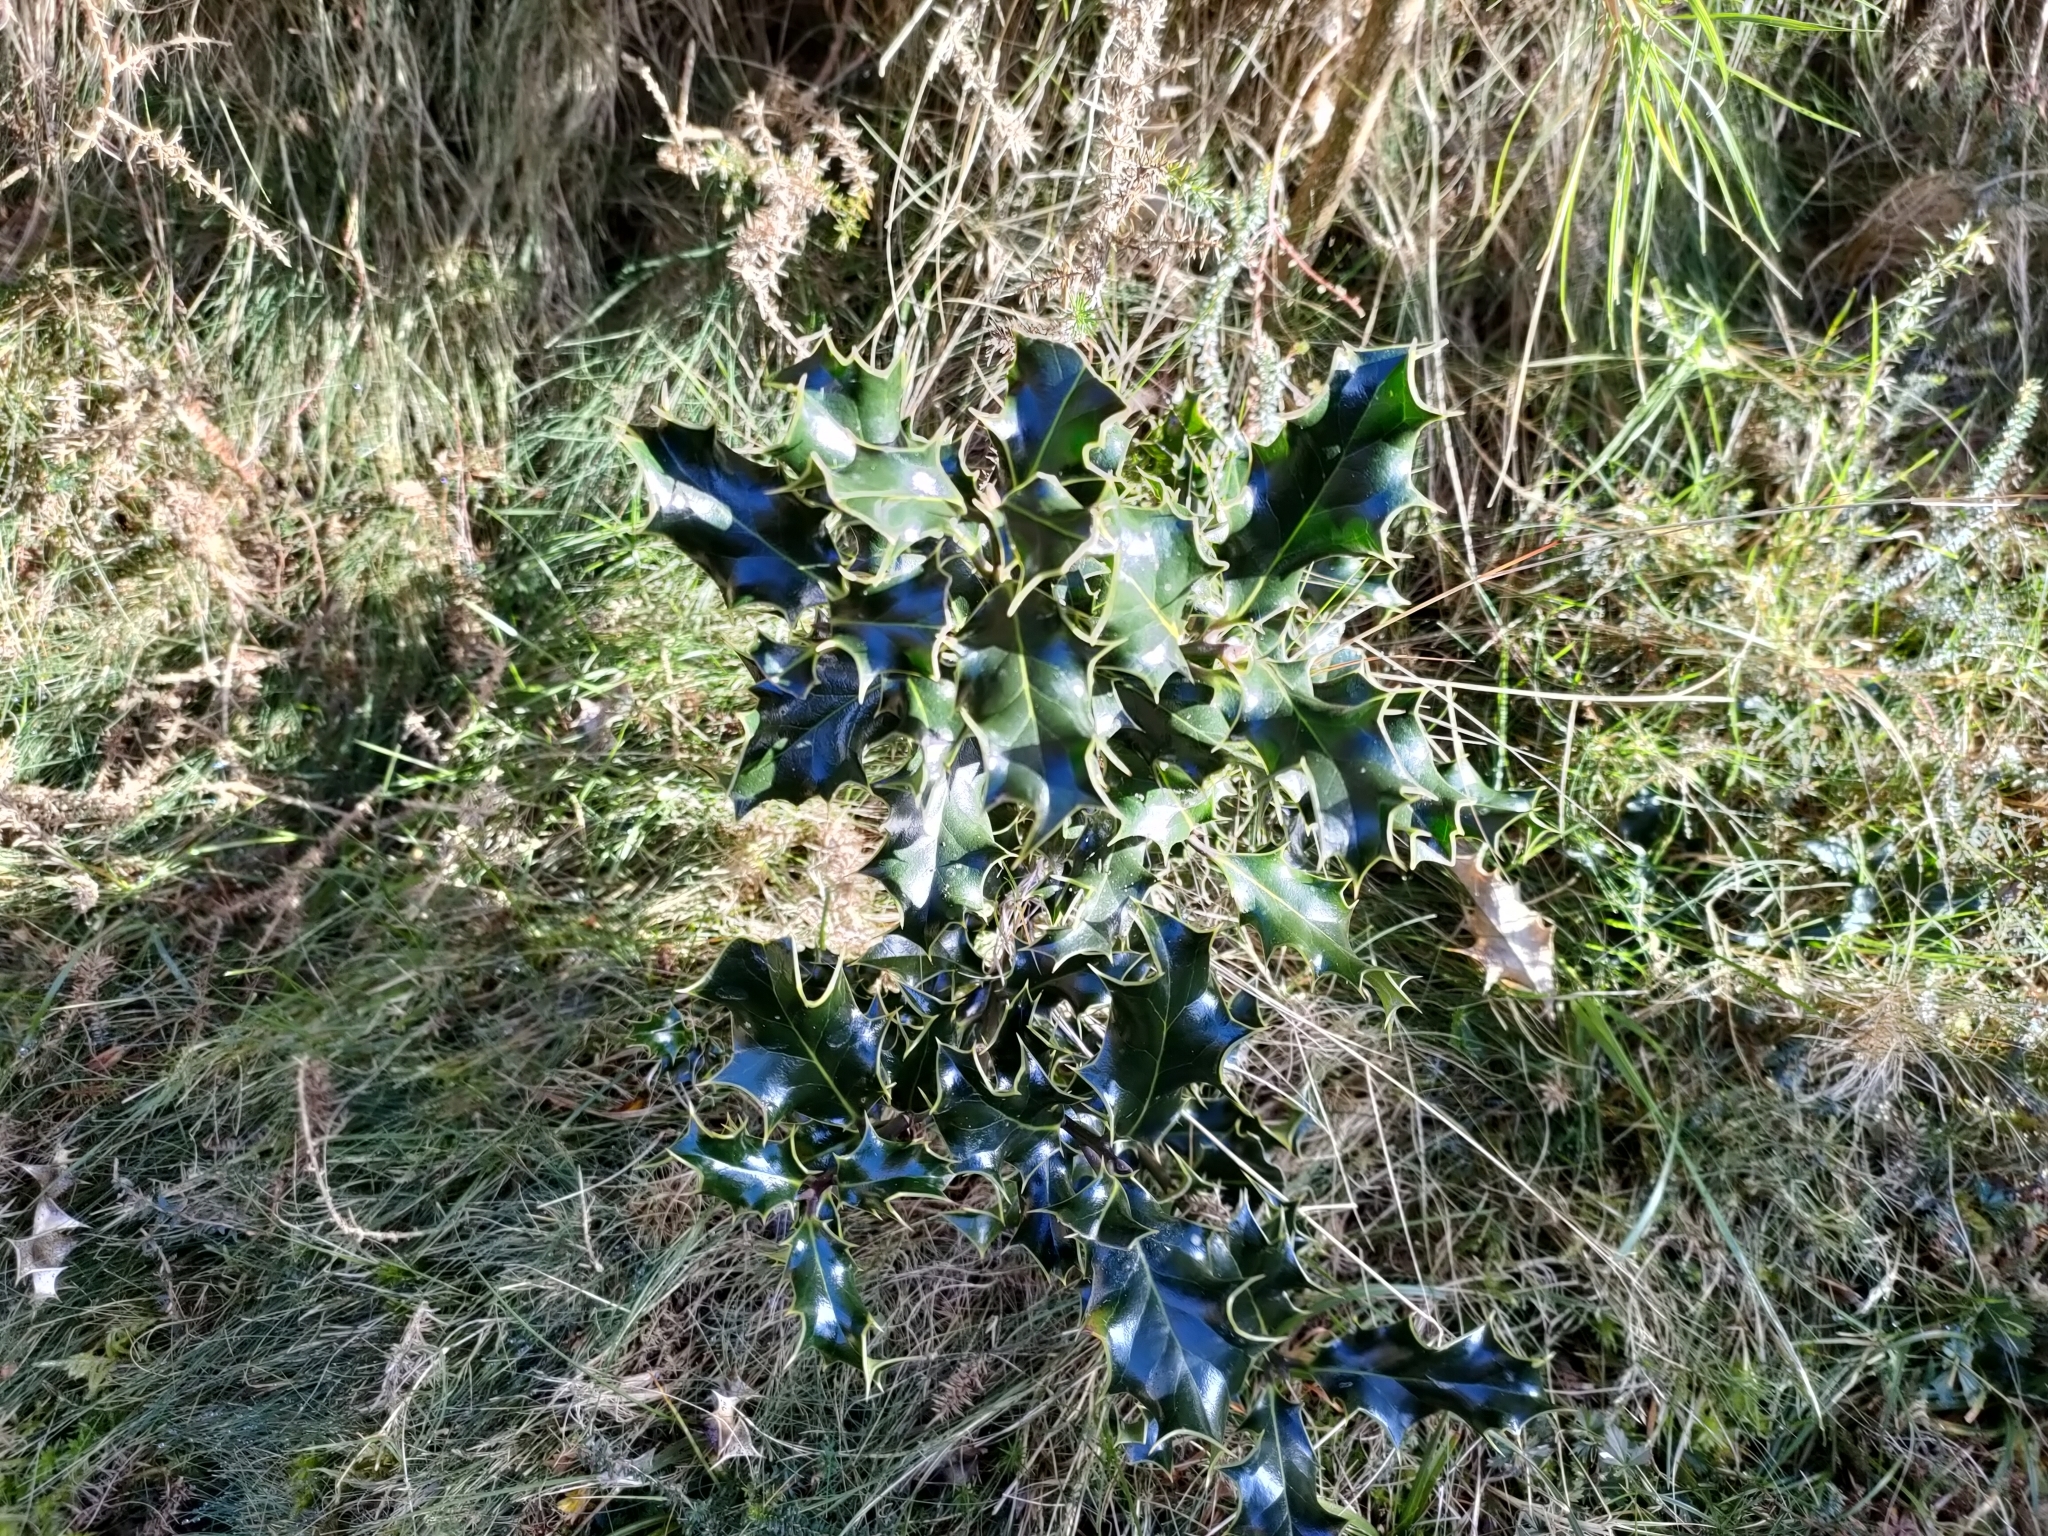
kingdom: Plantae
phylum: Tracheophyta
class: Magnoliopsida
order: Aquifoliales
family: Aquifoliaceae
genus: Ilex
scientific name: Ilex aquifolium
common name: English holly
